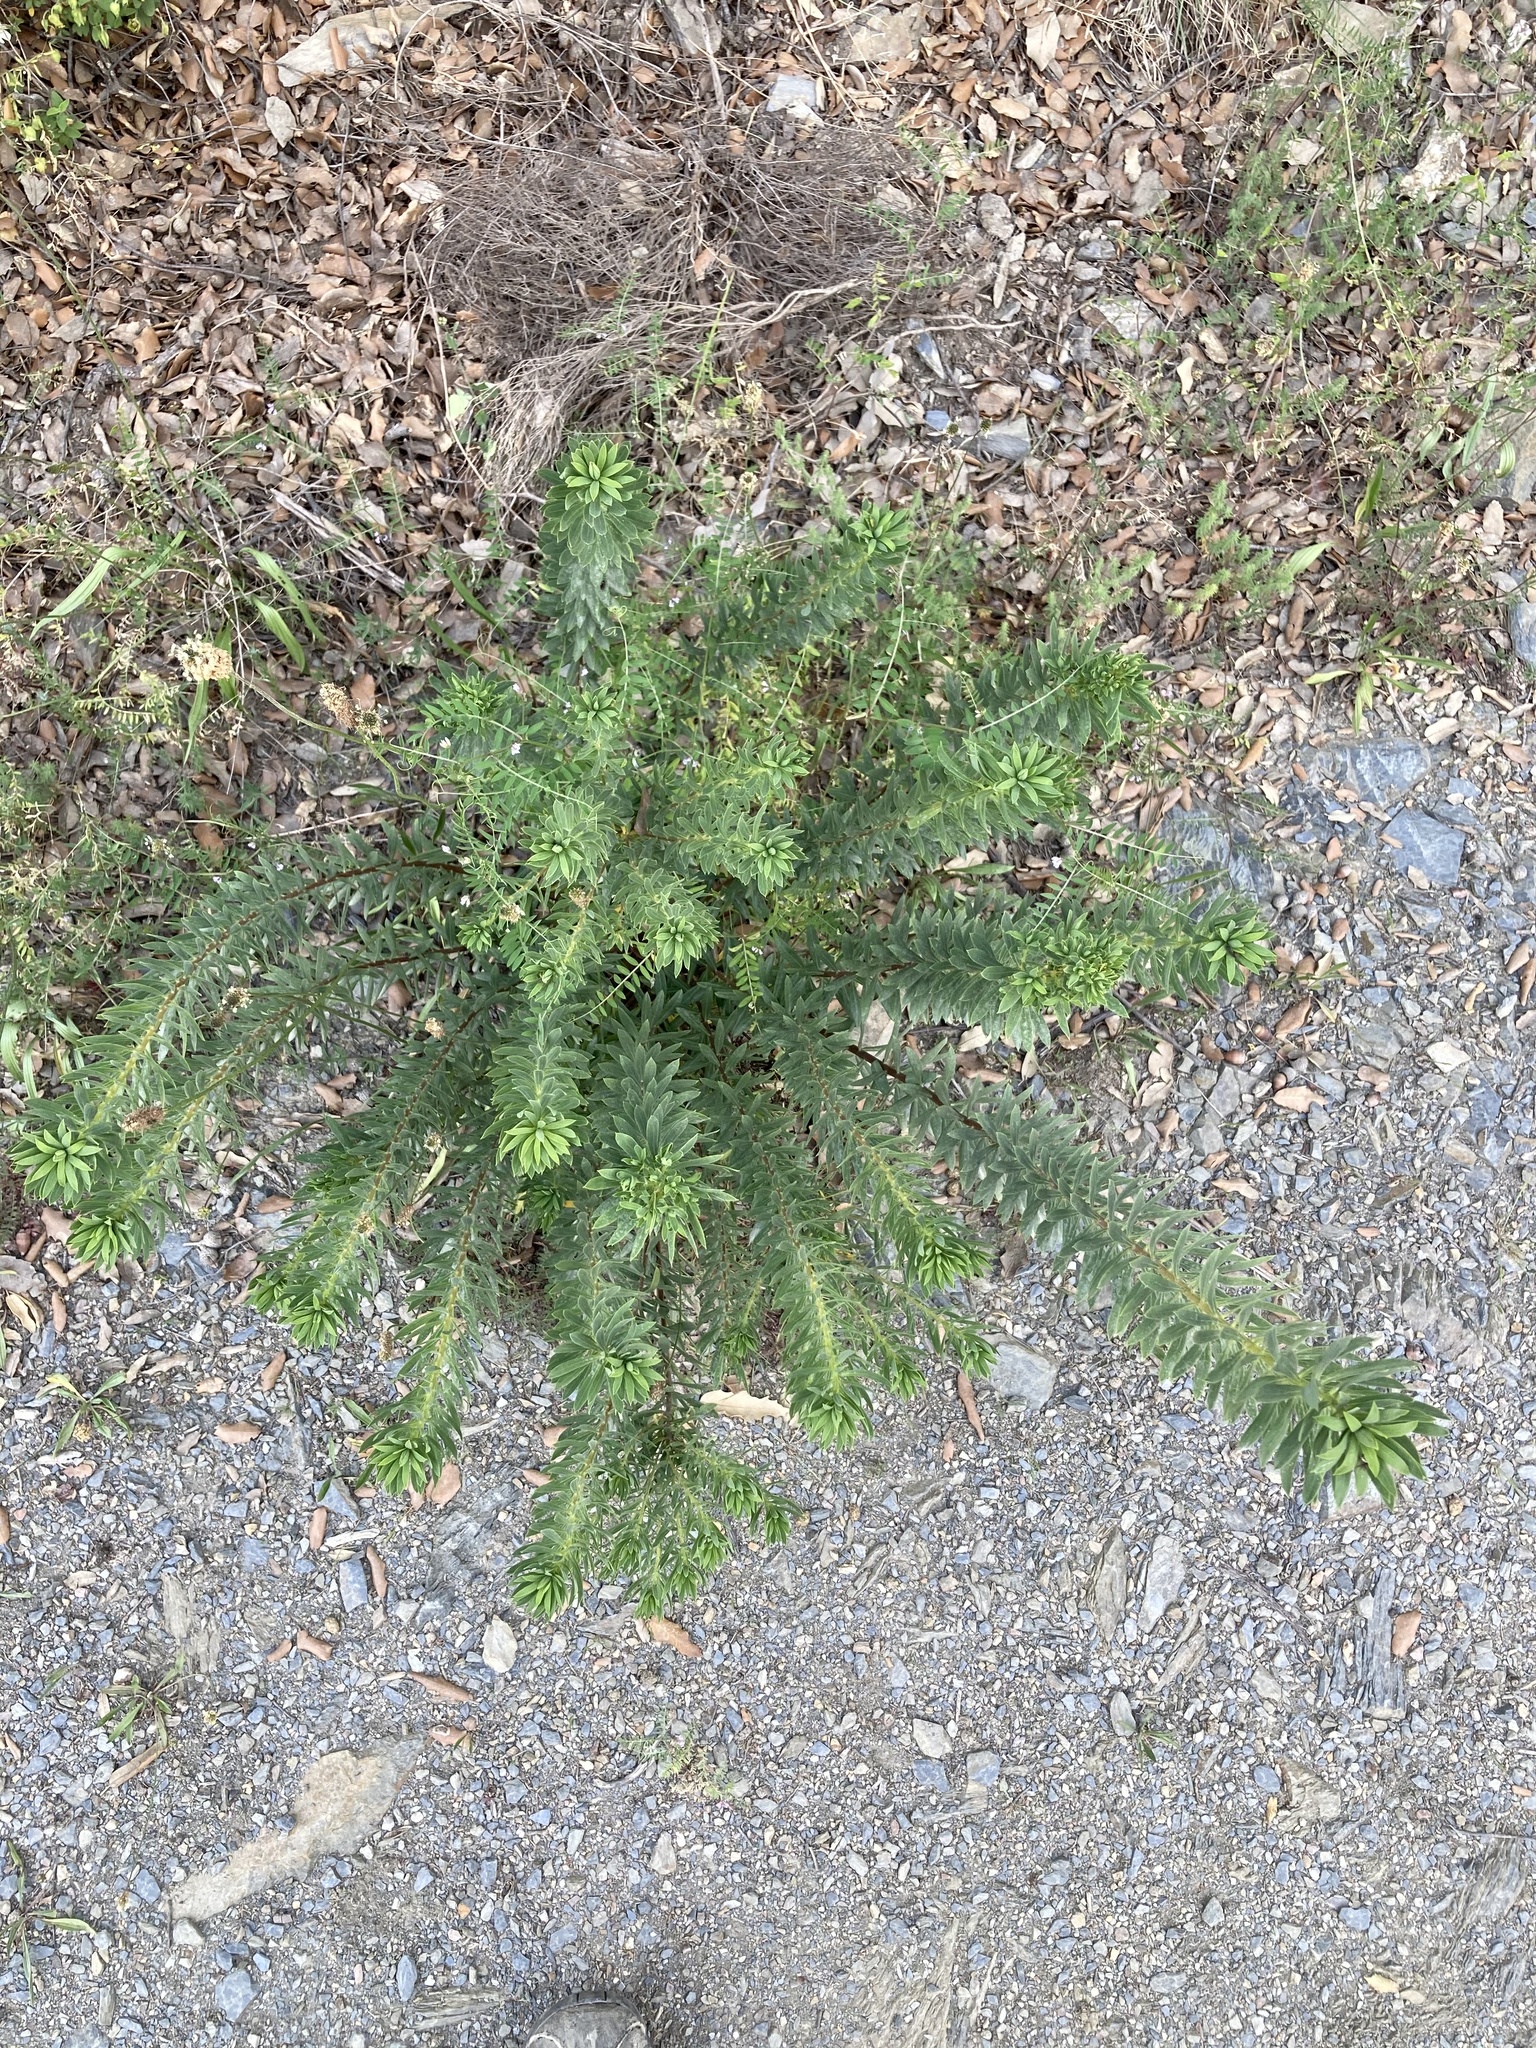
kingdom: Plantae
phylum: Tracheophyta
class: Magnoliopsida
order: Malvales
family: Thymelaeaceae
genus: Daphne
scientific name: Daphne gnidium
